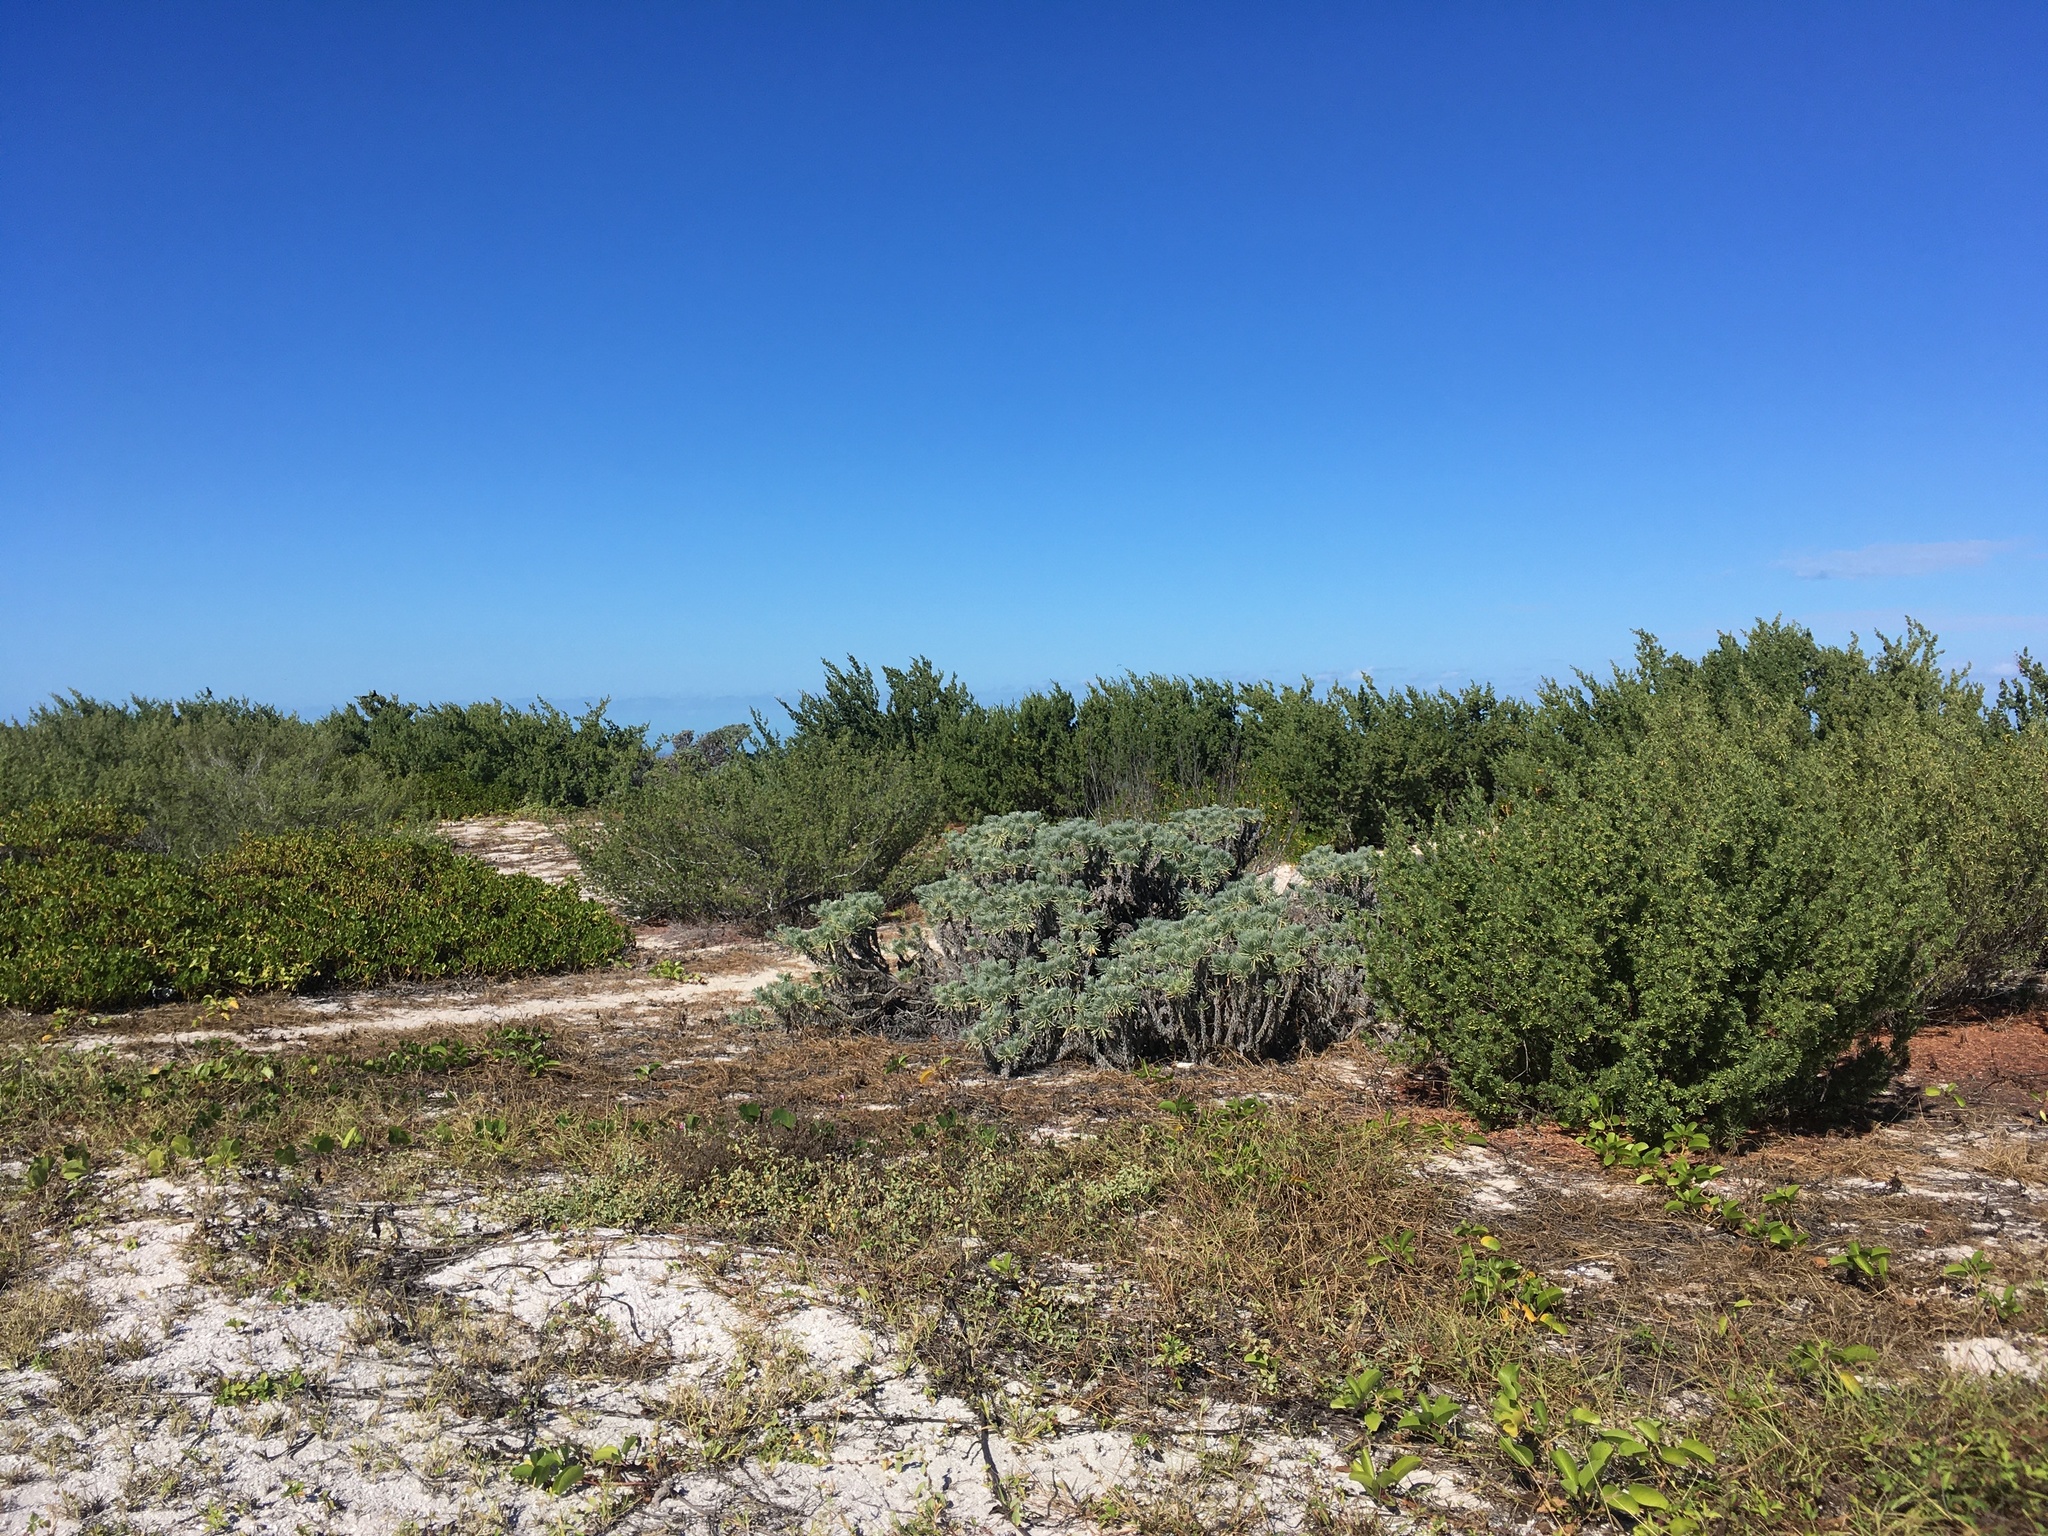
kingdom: Plantae
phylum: Tracheophyta
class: Magnoliopsida
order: Boraginales
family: Heliotropiaceae
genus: Tournefortia
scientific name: Tournefortia gnaphalodes
